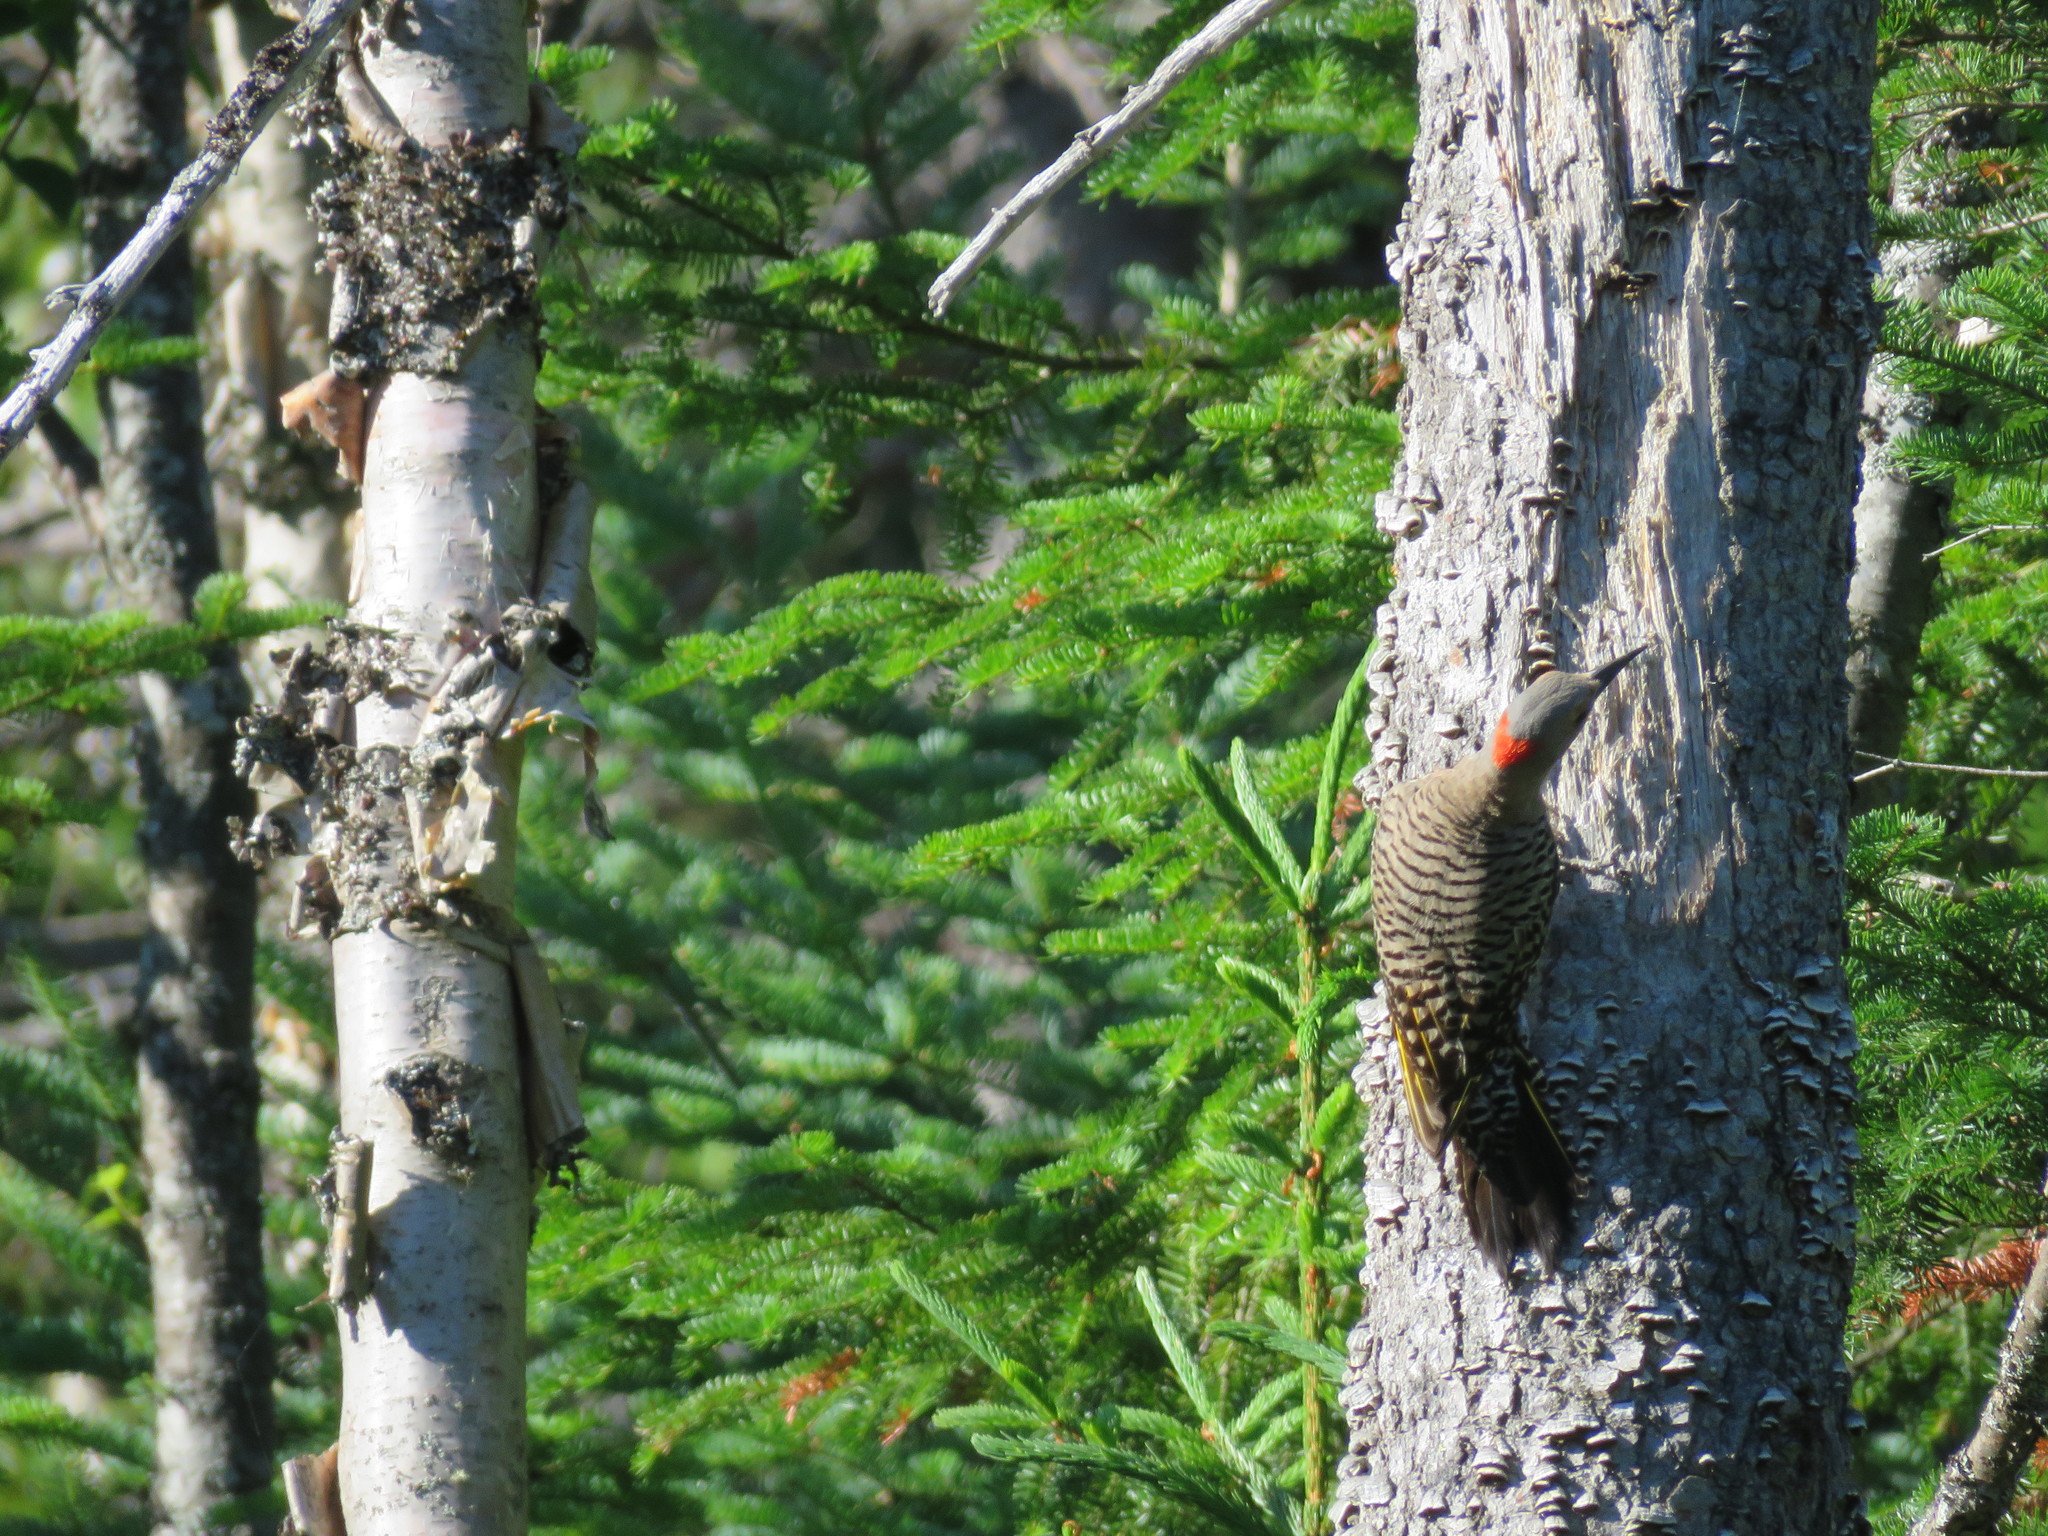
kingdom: Animalia
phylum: Chordata
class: Aves
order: Piciformes
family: Picidae
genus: Colaptes
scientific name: Colaptes auratus
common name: Northern flicker
